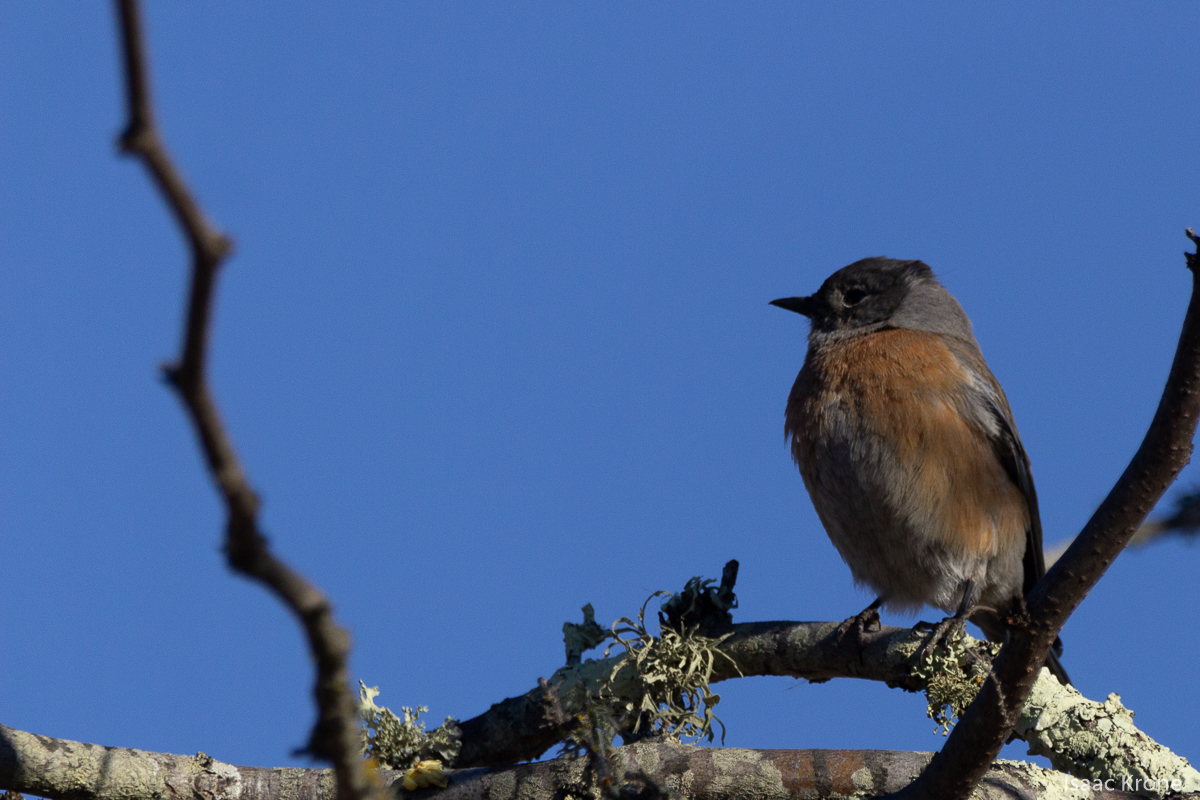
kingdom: Animalia
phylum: Chordata
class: Aves
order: Passeriformes
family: Turdidae
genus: Sialia
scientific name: Sialia mexicana
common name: Western bluebird
